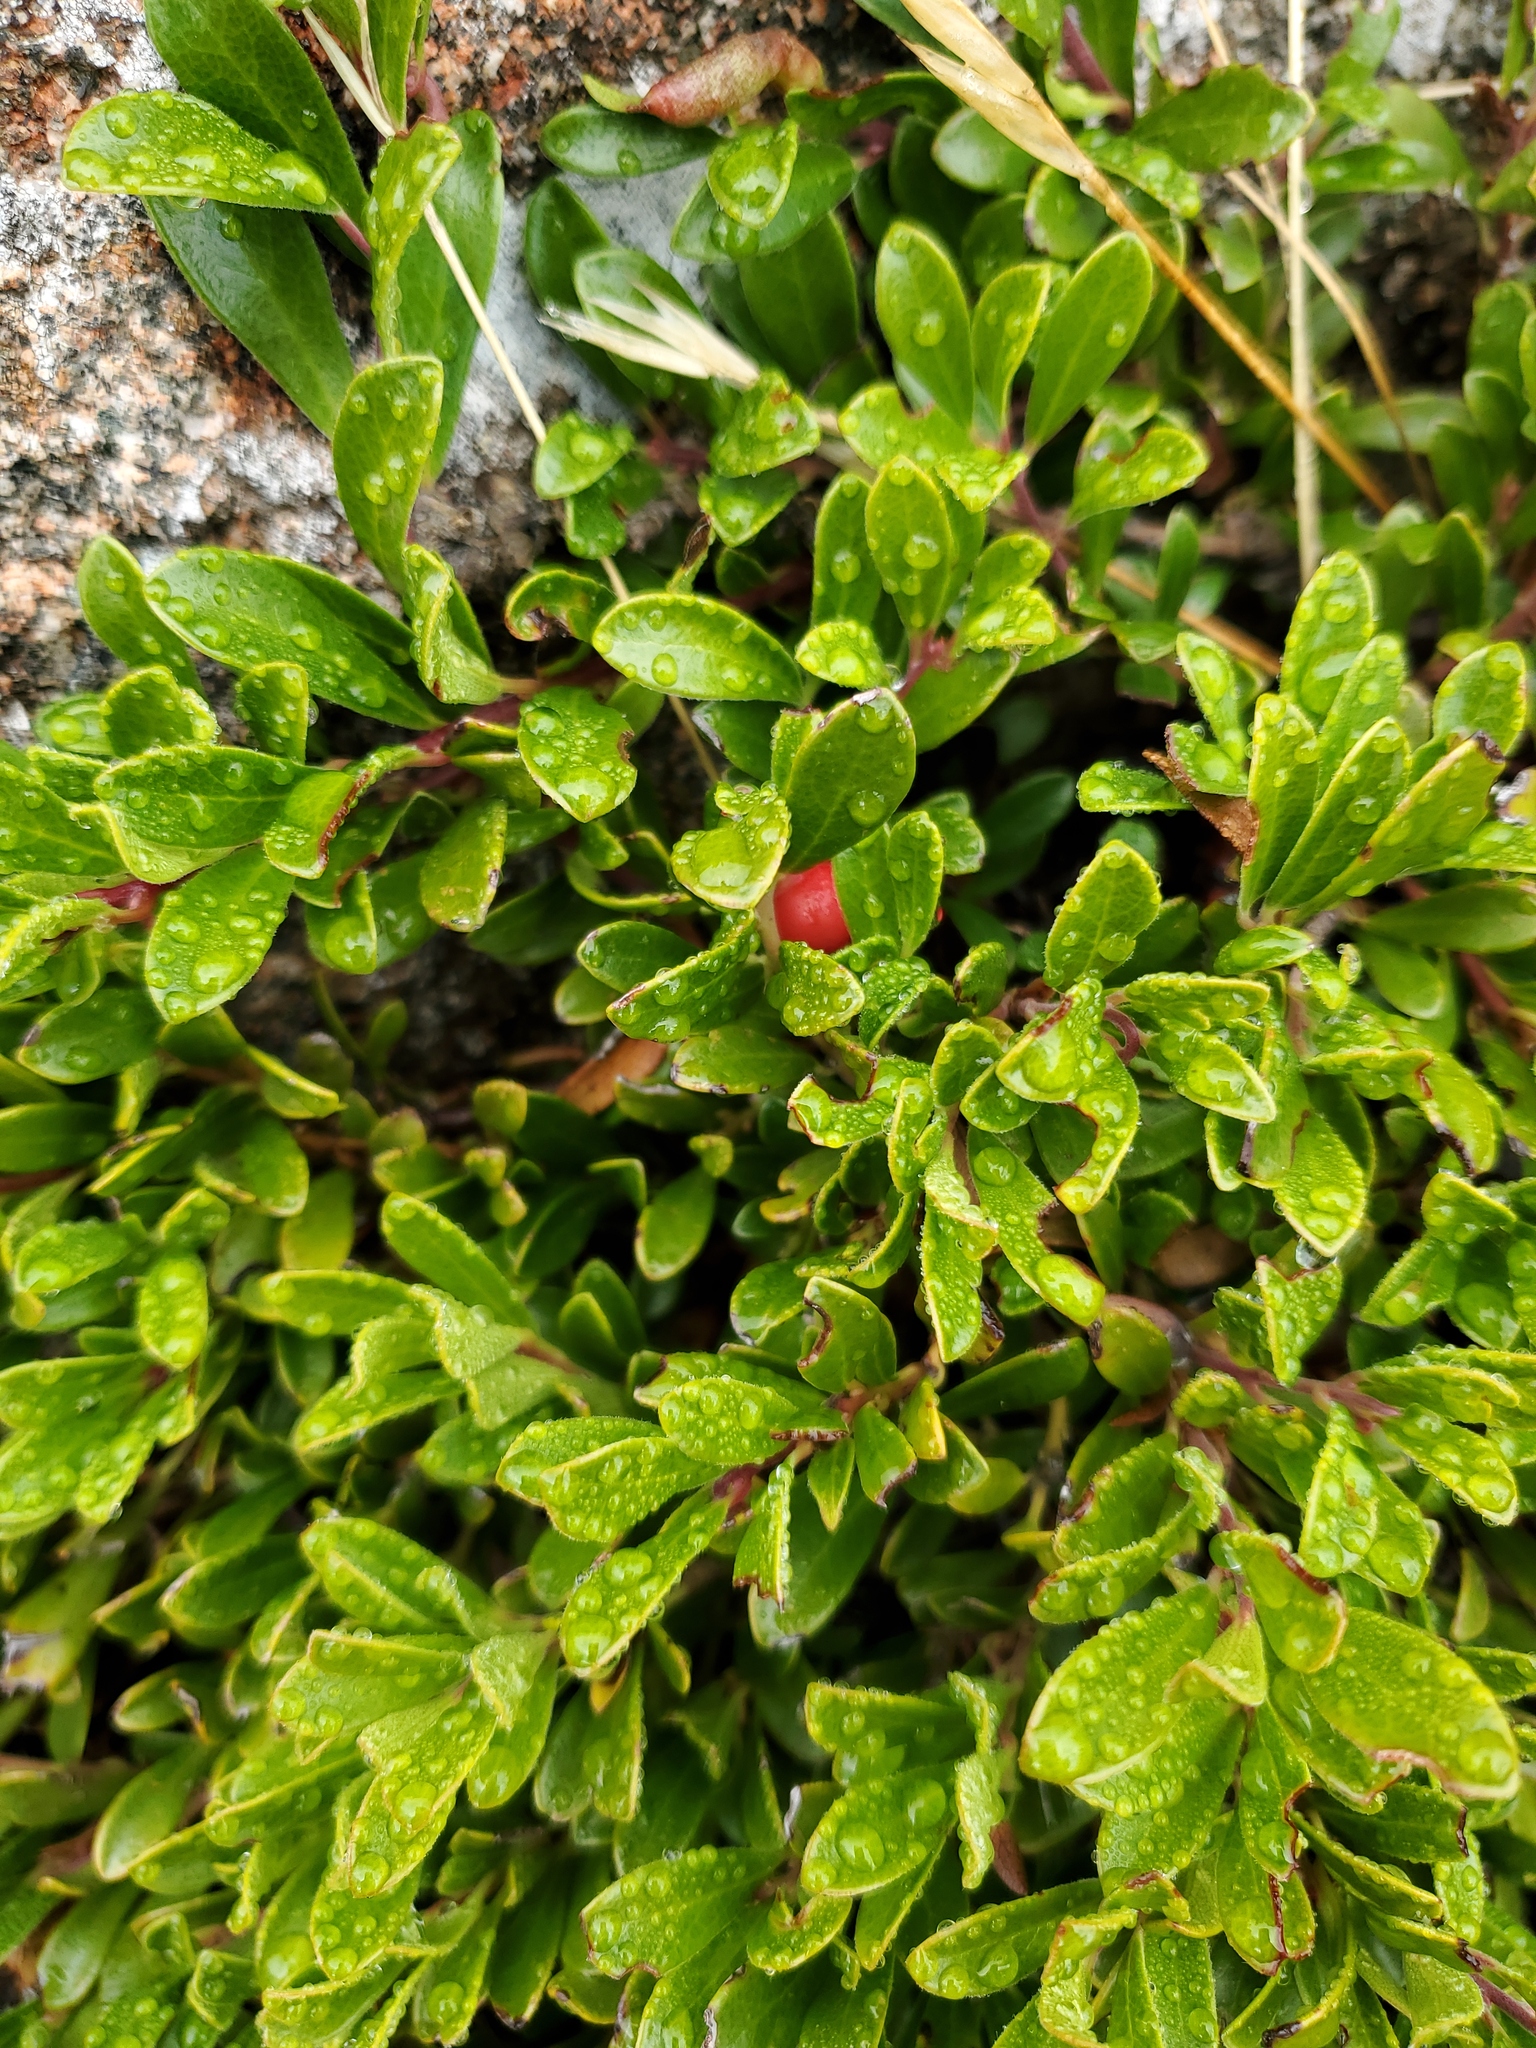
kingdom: Plantae
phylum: Tracheophyta
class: Magnoliopsida
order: Ericales
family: Ericaceae
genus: Arctostaphylos
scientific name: Arctostaphylos uva-ursi
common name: Bearberry
